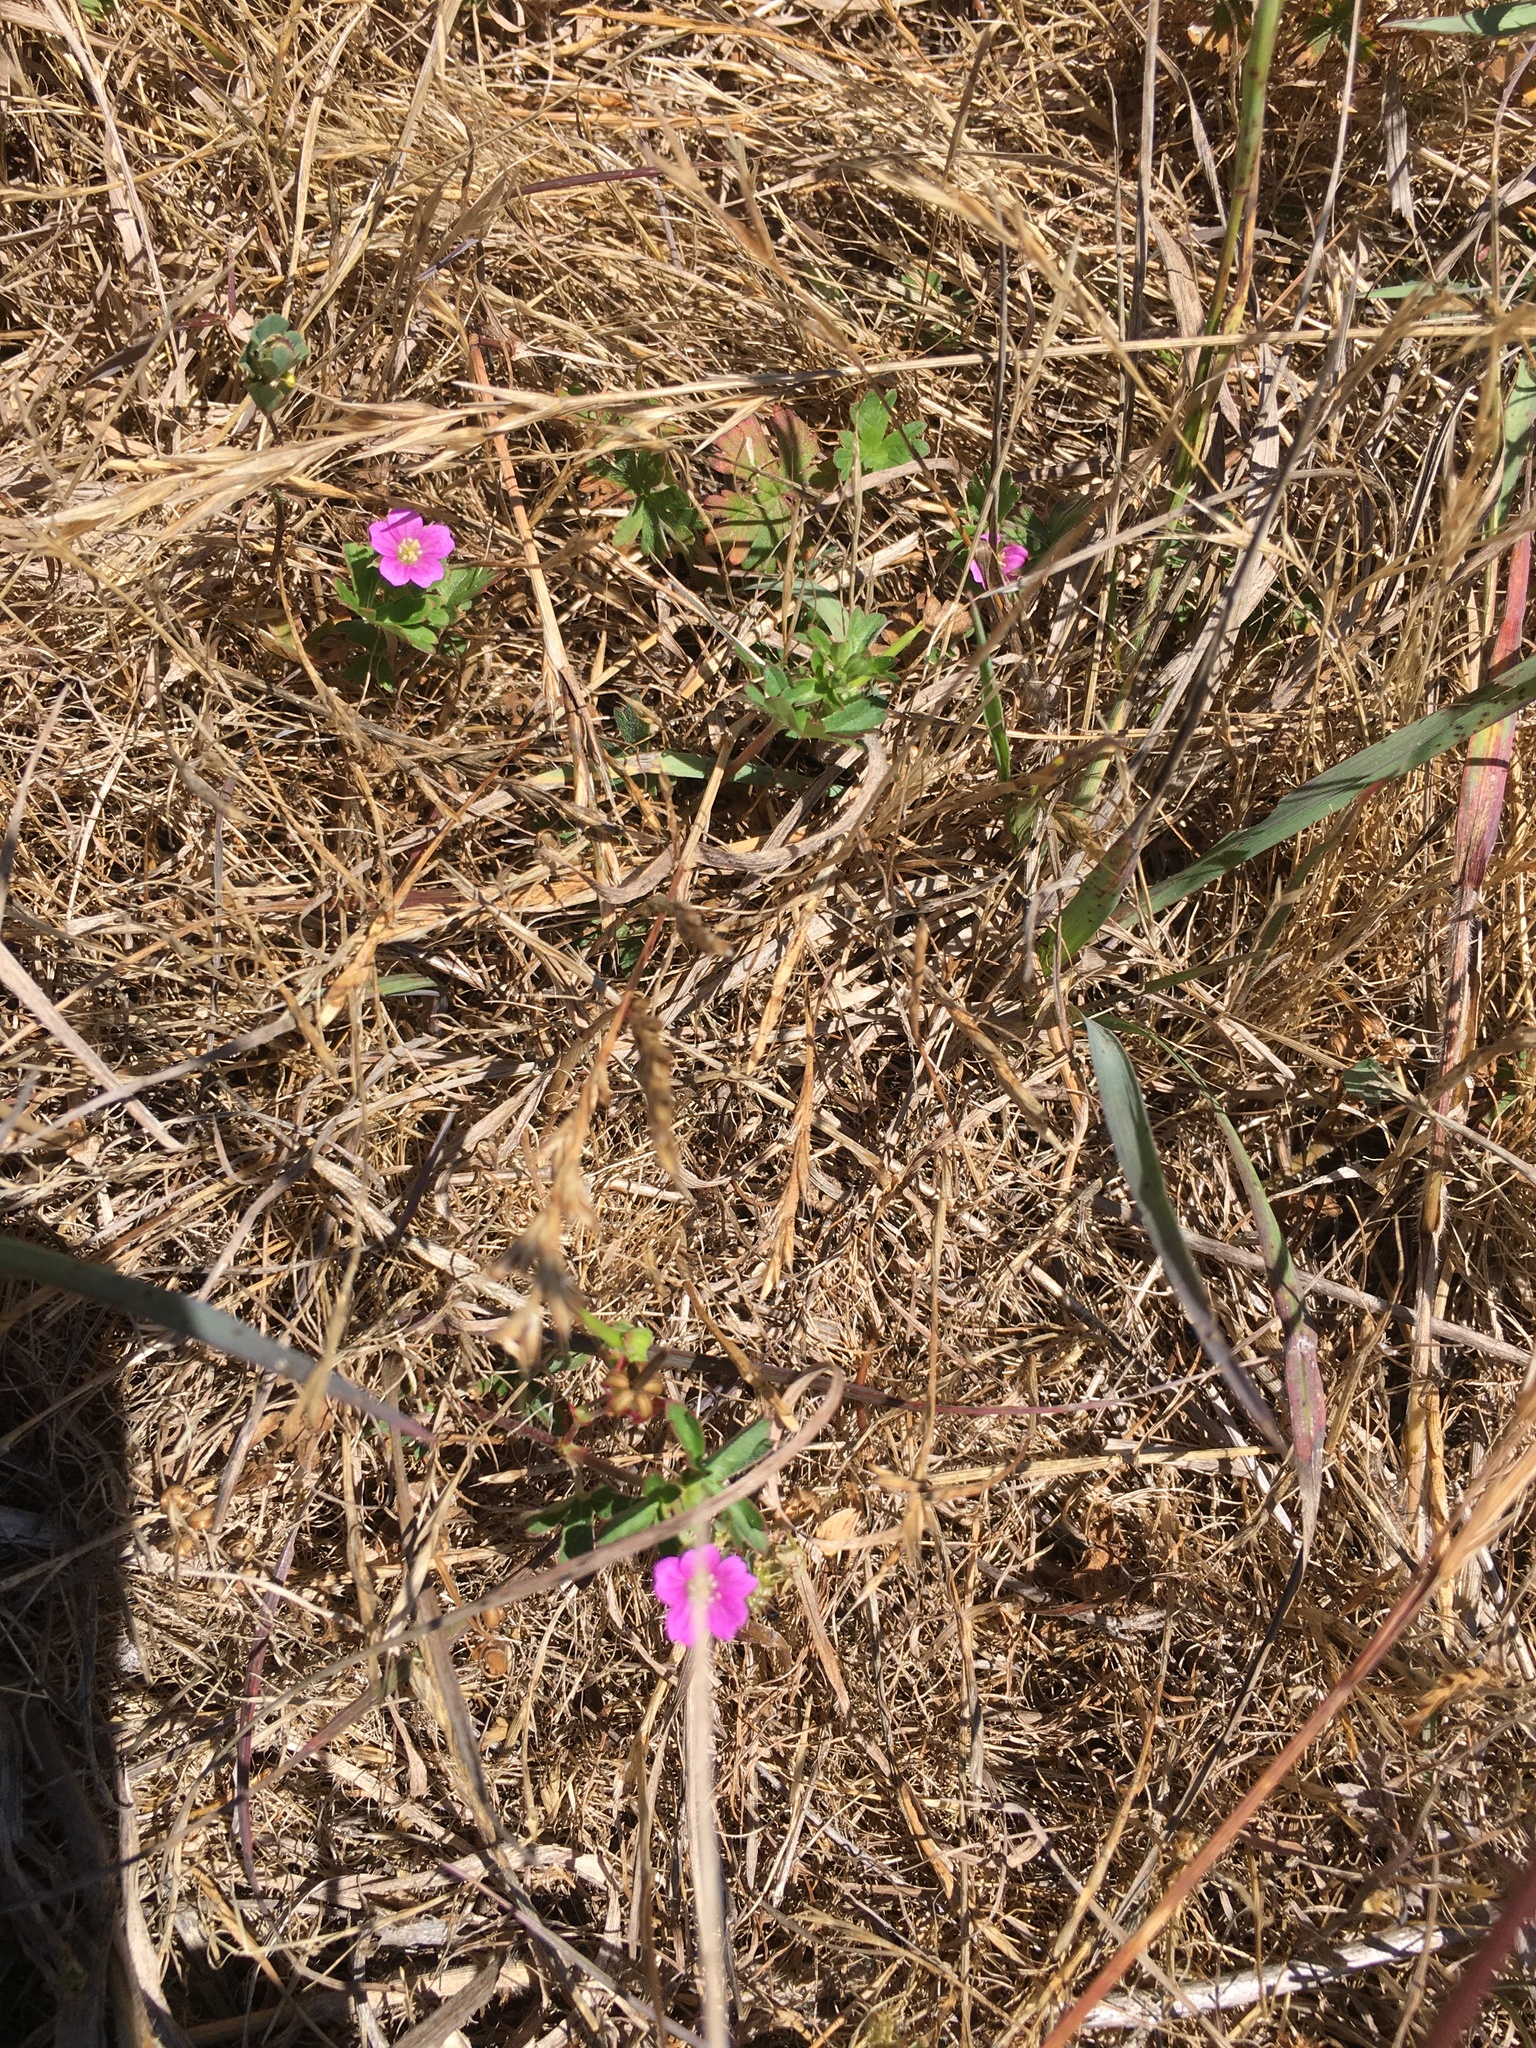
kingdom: Plantae
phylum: Tracheophyta
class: Magnoliopsida
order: Caryophyllales
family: Montiaceae
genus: Calandrinia
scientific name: Calandrinia menziesii
